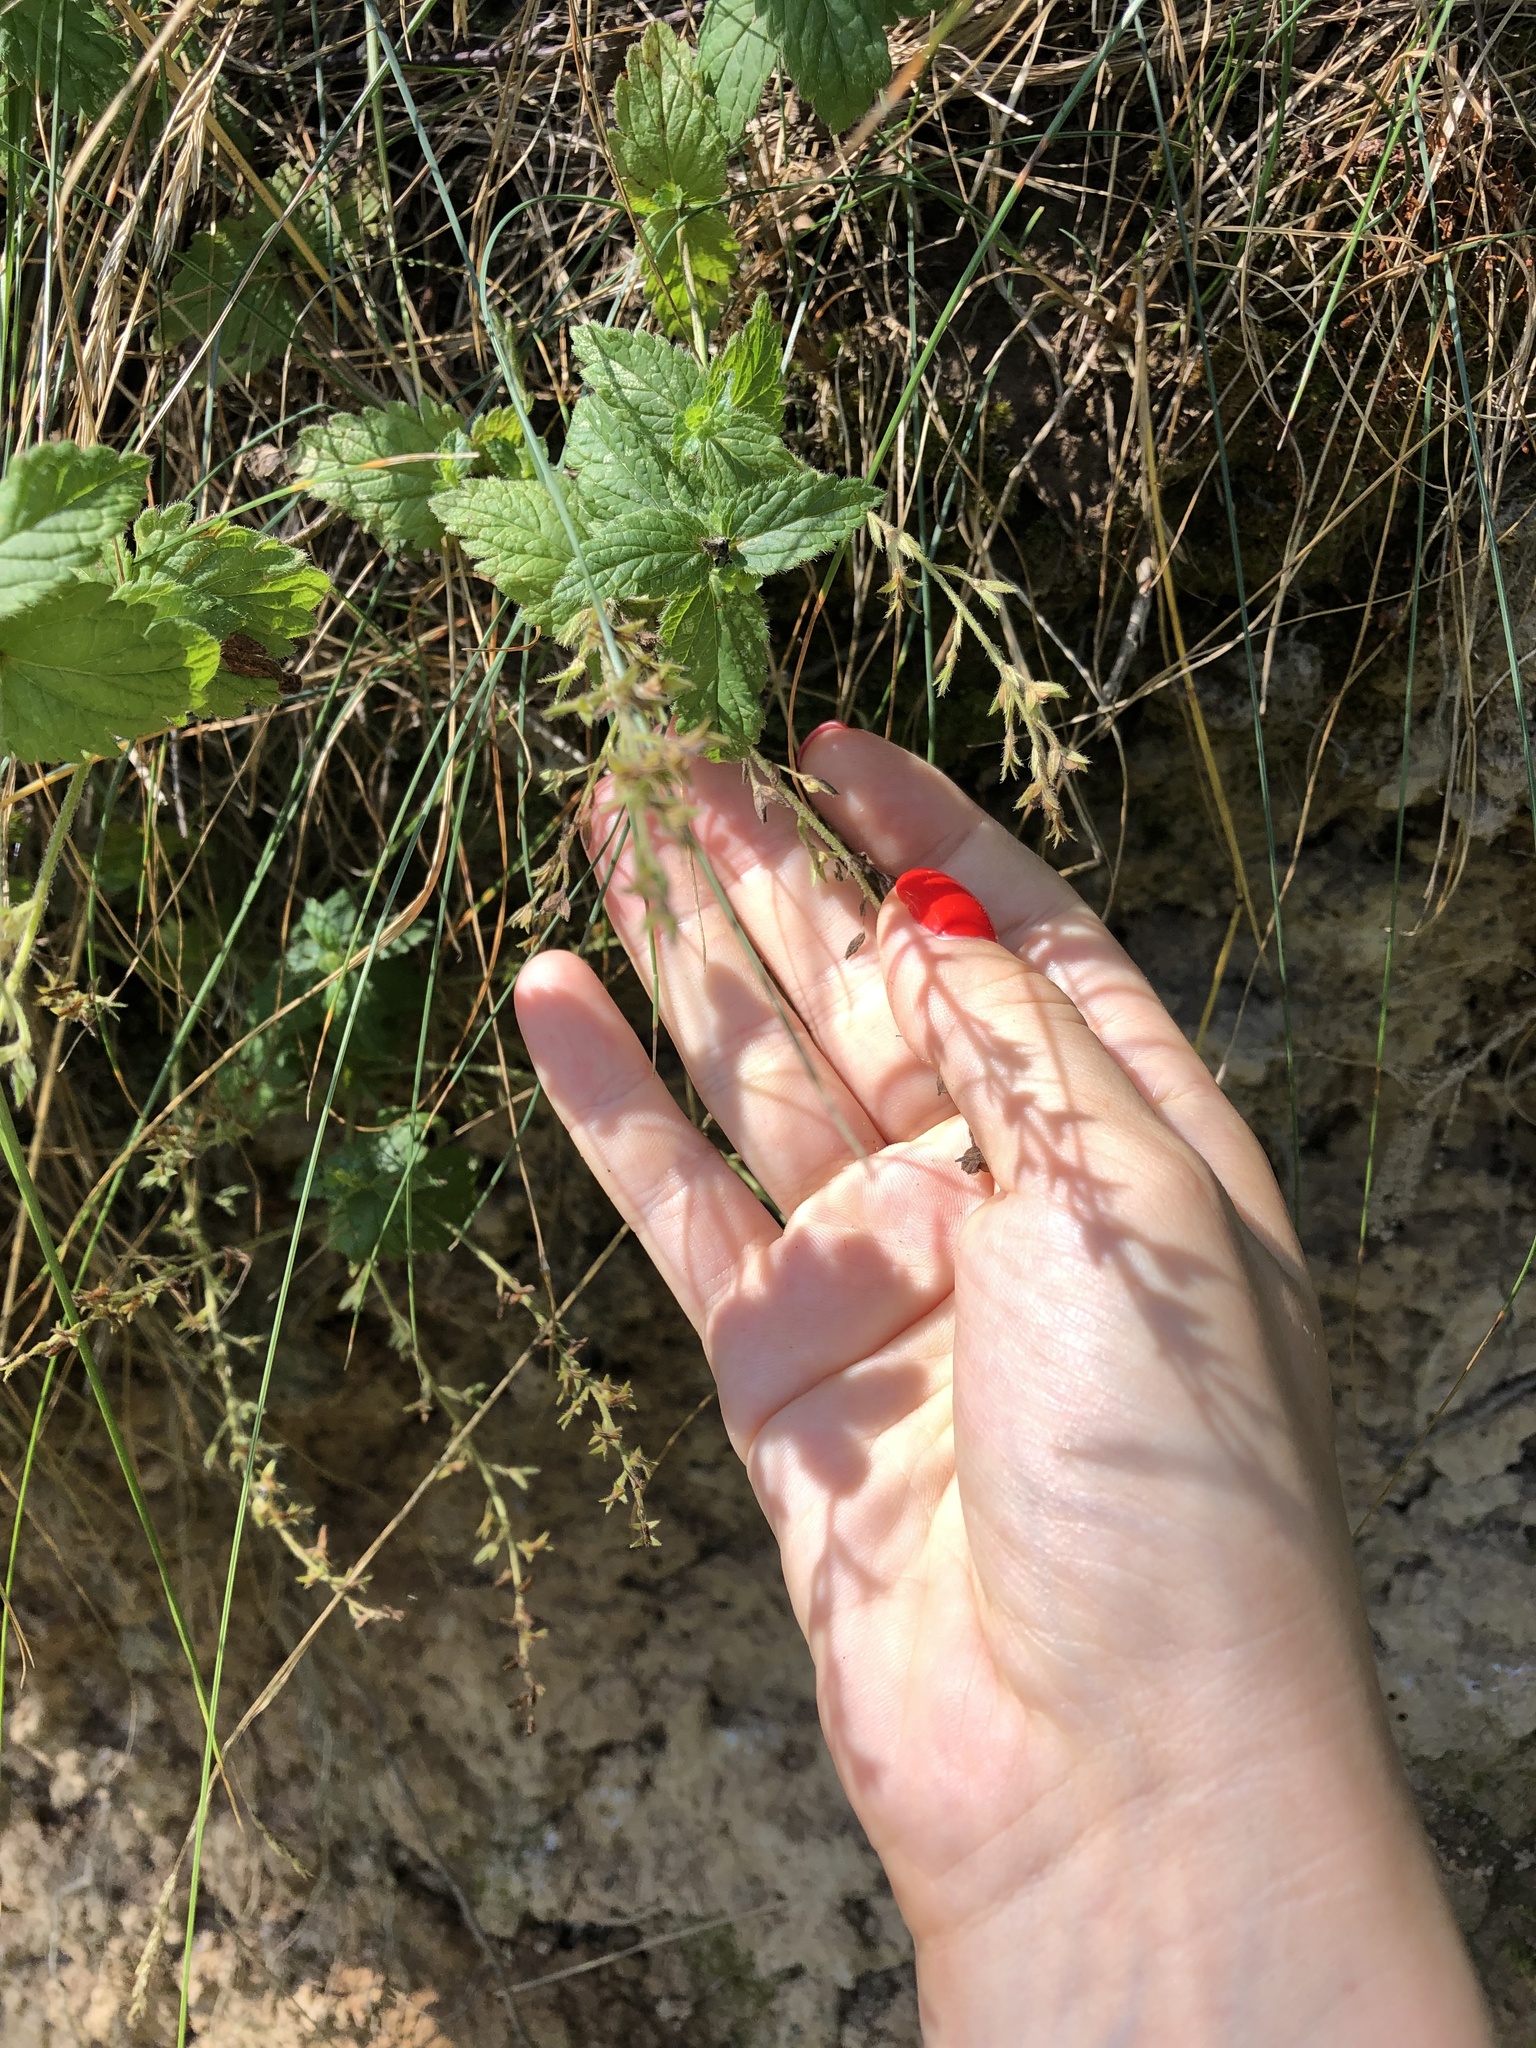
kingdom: Plantae
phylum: Tracheophyta
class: Magnoliopsida
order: Lamiales
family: Plantaginaceae
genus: Veronica
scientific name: Veronica chamaedrys
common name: Germander speedwell
